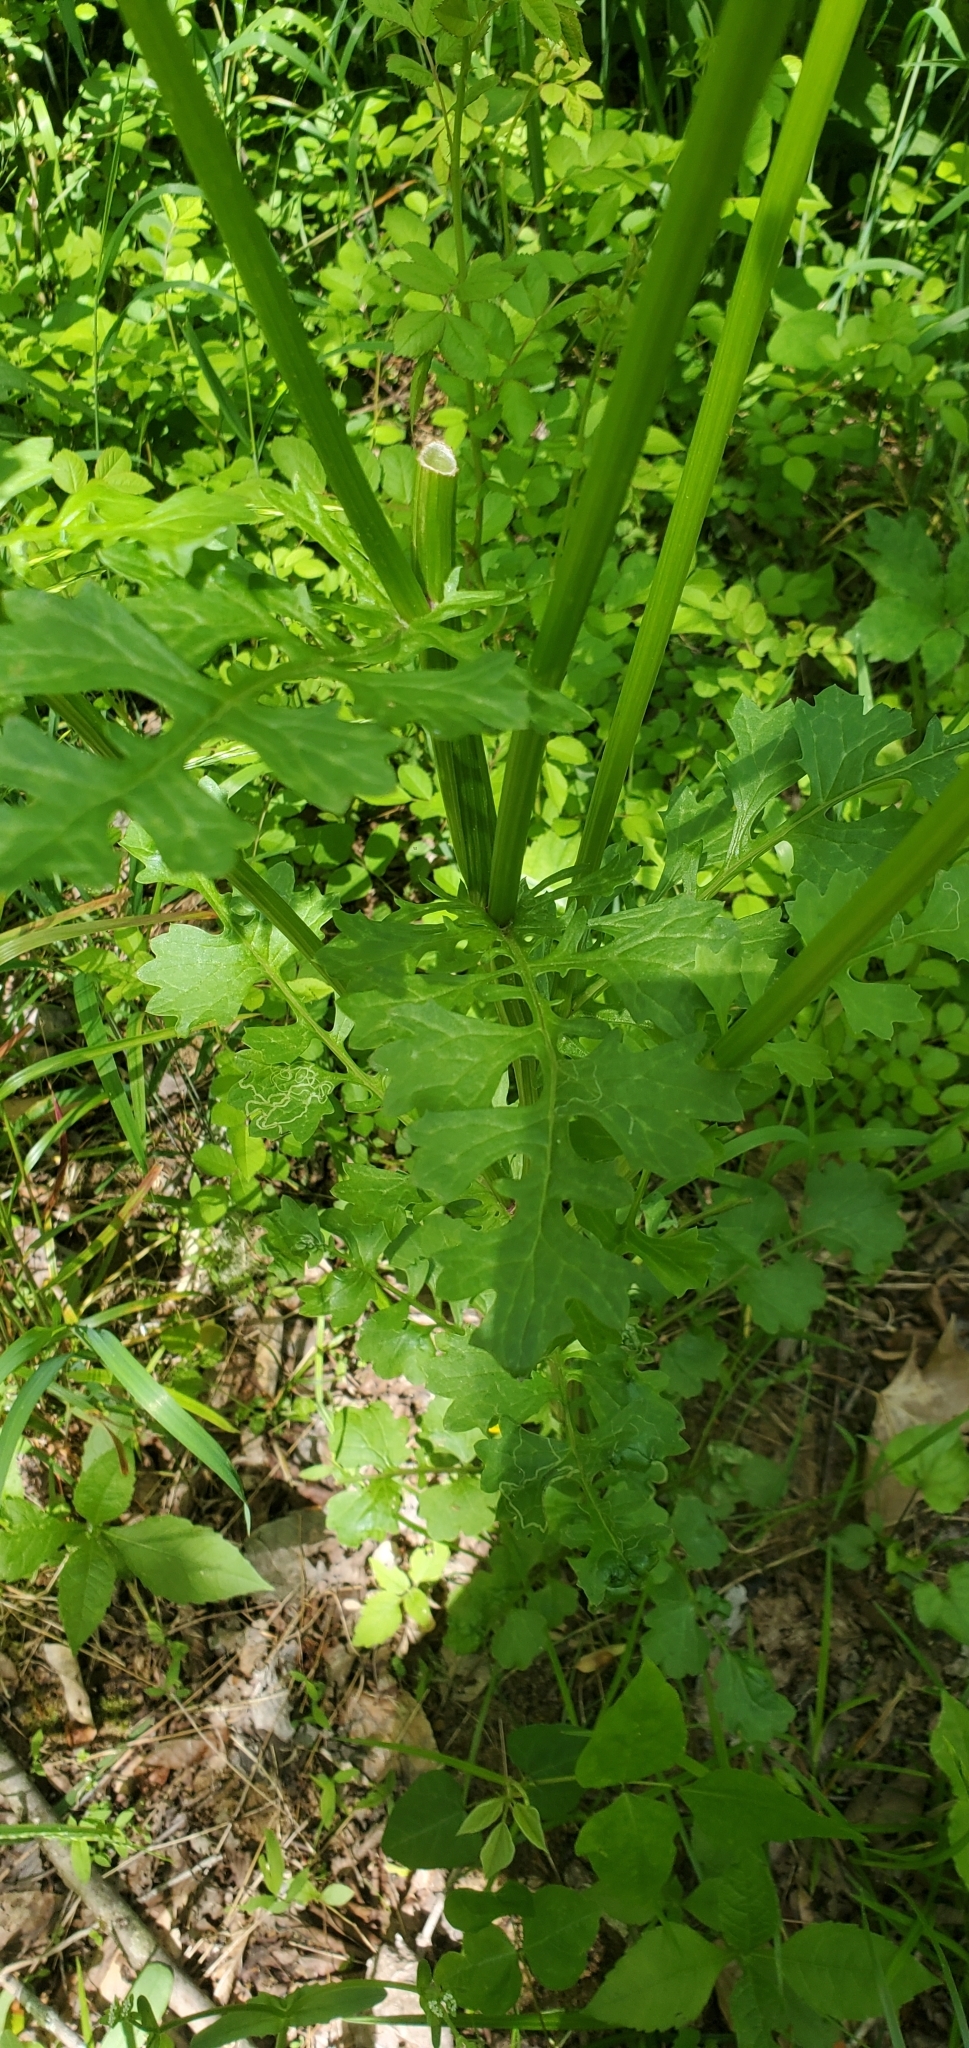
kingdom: Plantae
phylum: Tracheophyta
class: Magnoliopsida
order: Asterales
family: Asteraceae
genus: Packera
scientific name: Packera glabella
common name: Butterweed
